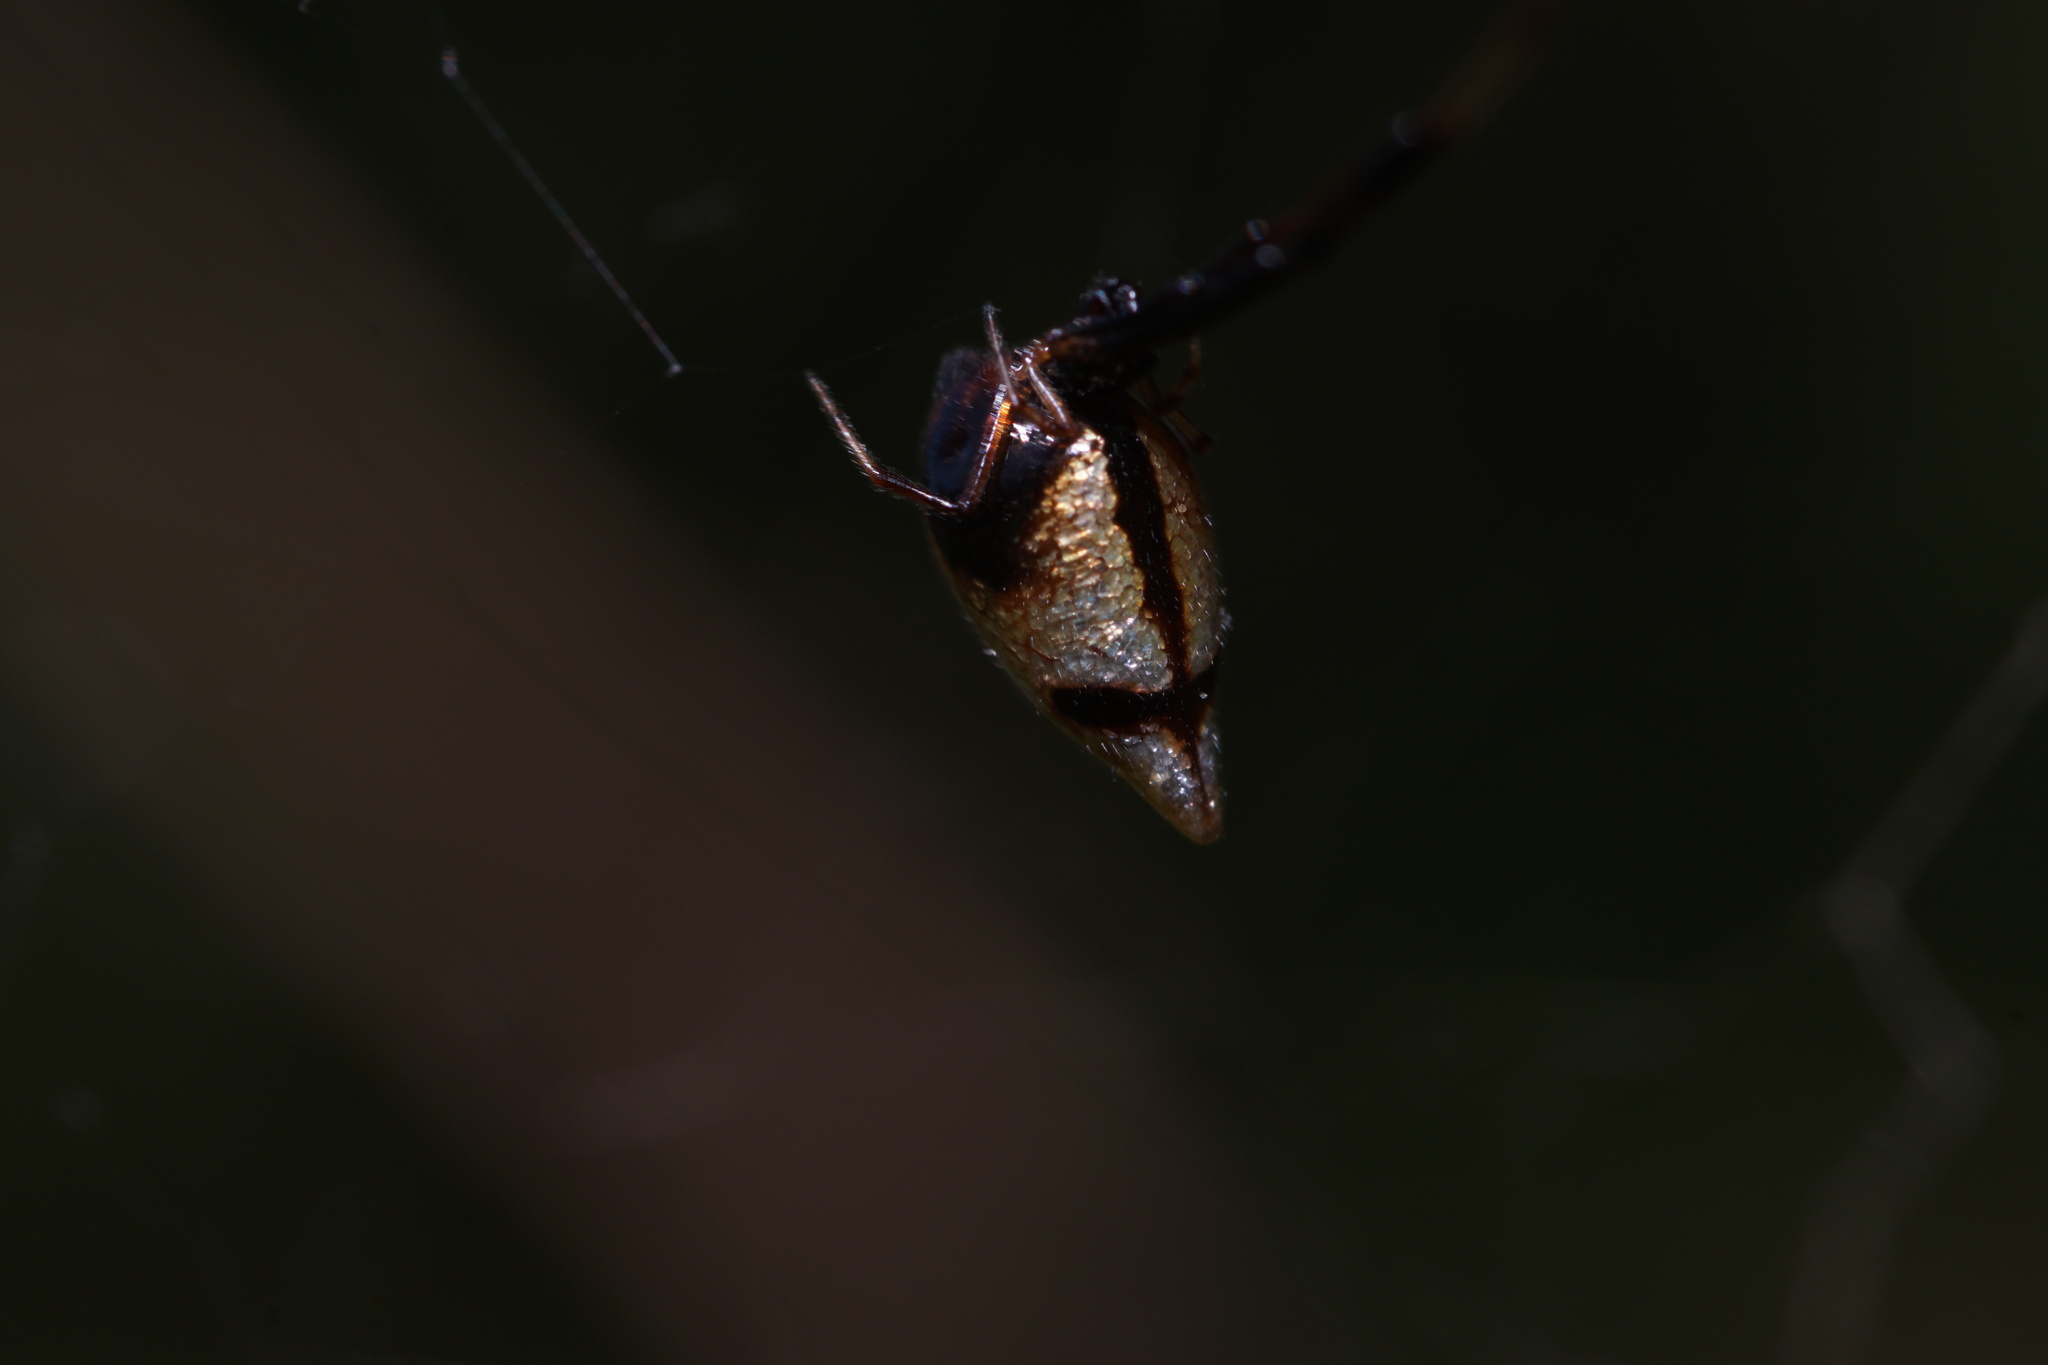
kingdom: Animalia
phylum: Arthropoda
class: Arachnida
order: Araneae
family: Theridiidae
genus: Argyrodes
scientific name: Argyrodes elevatus
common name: Cobweb spiders
